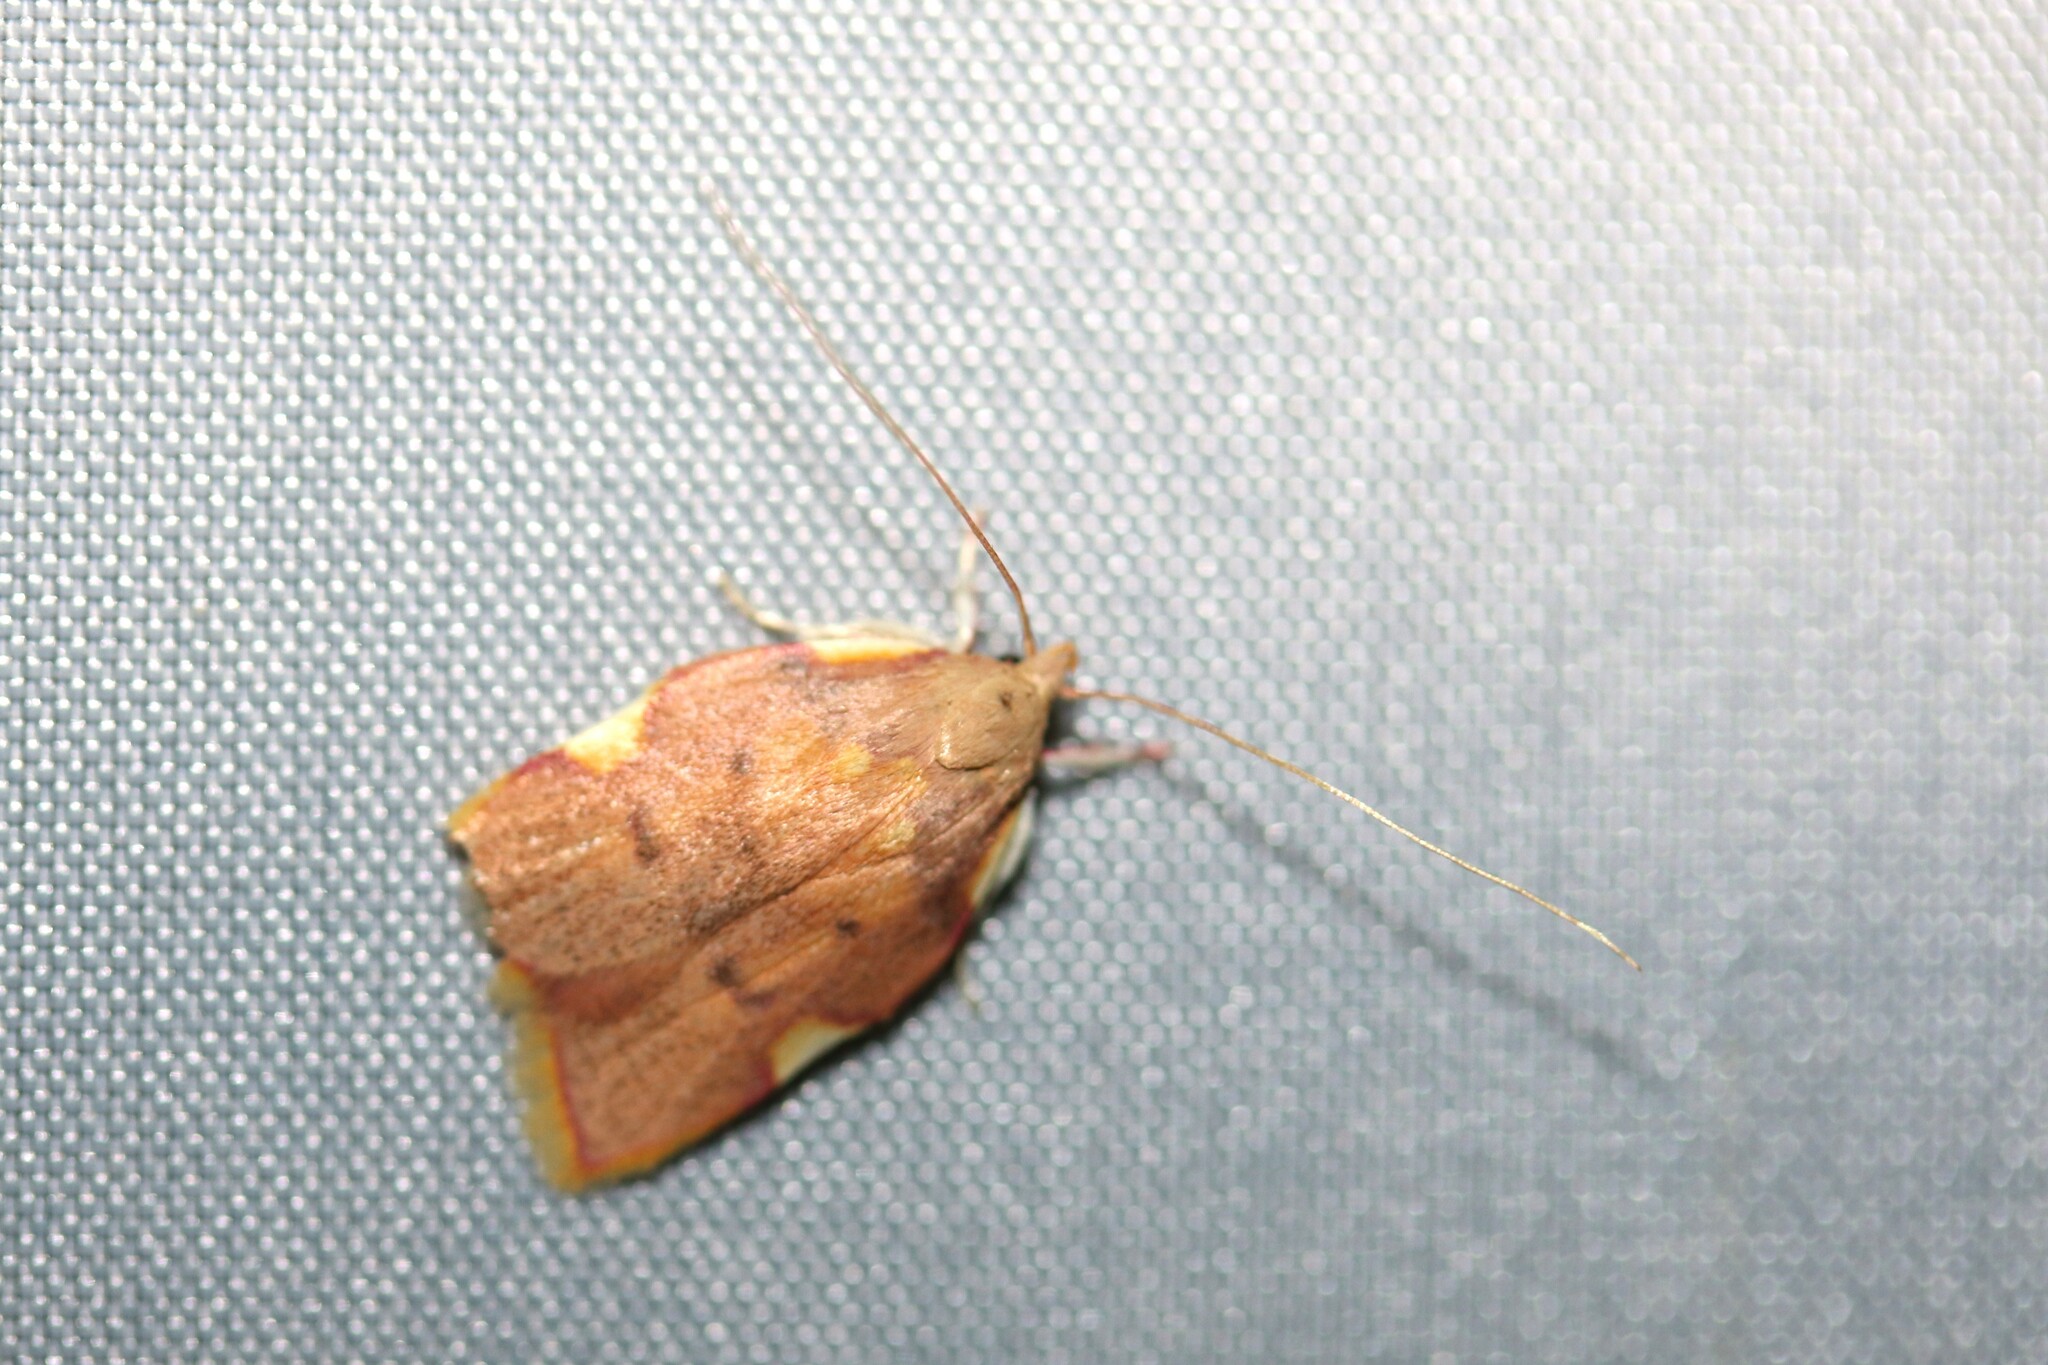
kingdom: Animalia
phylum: Arthropoda
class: Insecta
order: Lepidoptera
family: Peleopodidae
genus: Carcina
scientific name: Carcina quercana
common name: Moth
